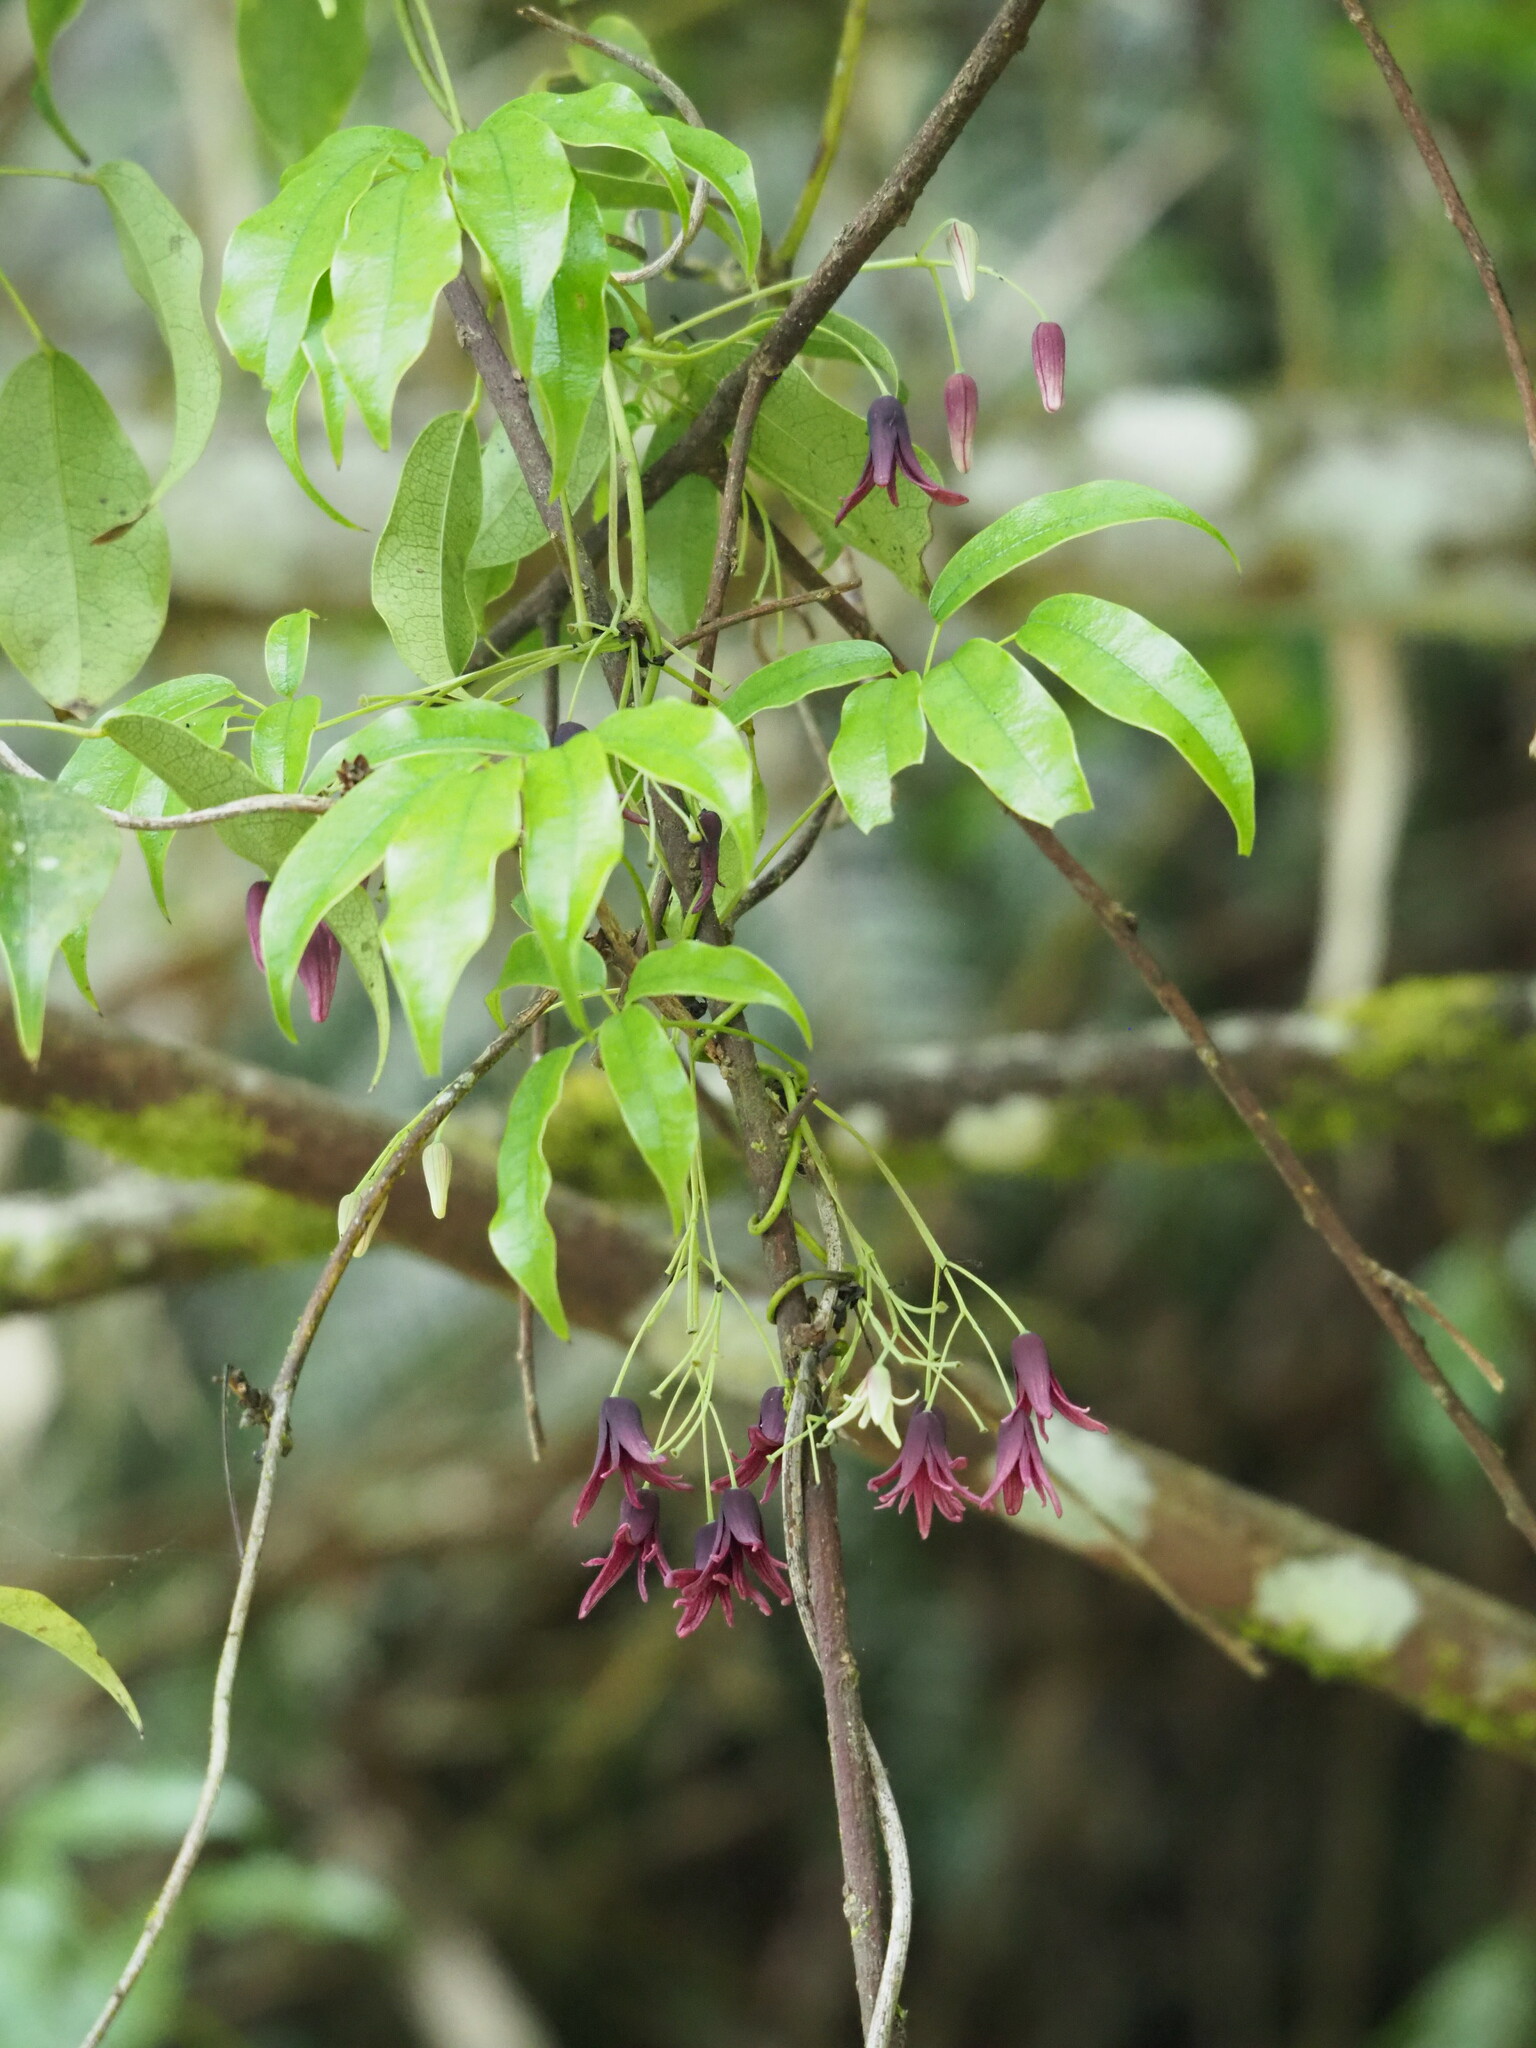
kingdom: Plantae
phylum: Tracheophyta
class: Magnoliopsida
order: Ranunculales
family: Lardizabalaceae
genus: Stauntonia
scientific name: Stauntonia purpurea
